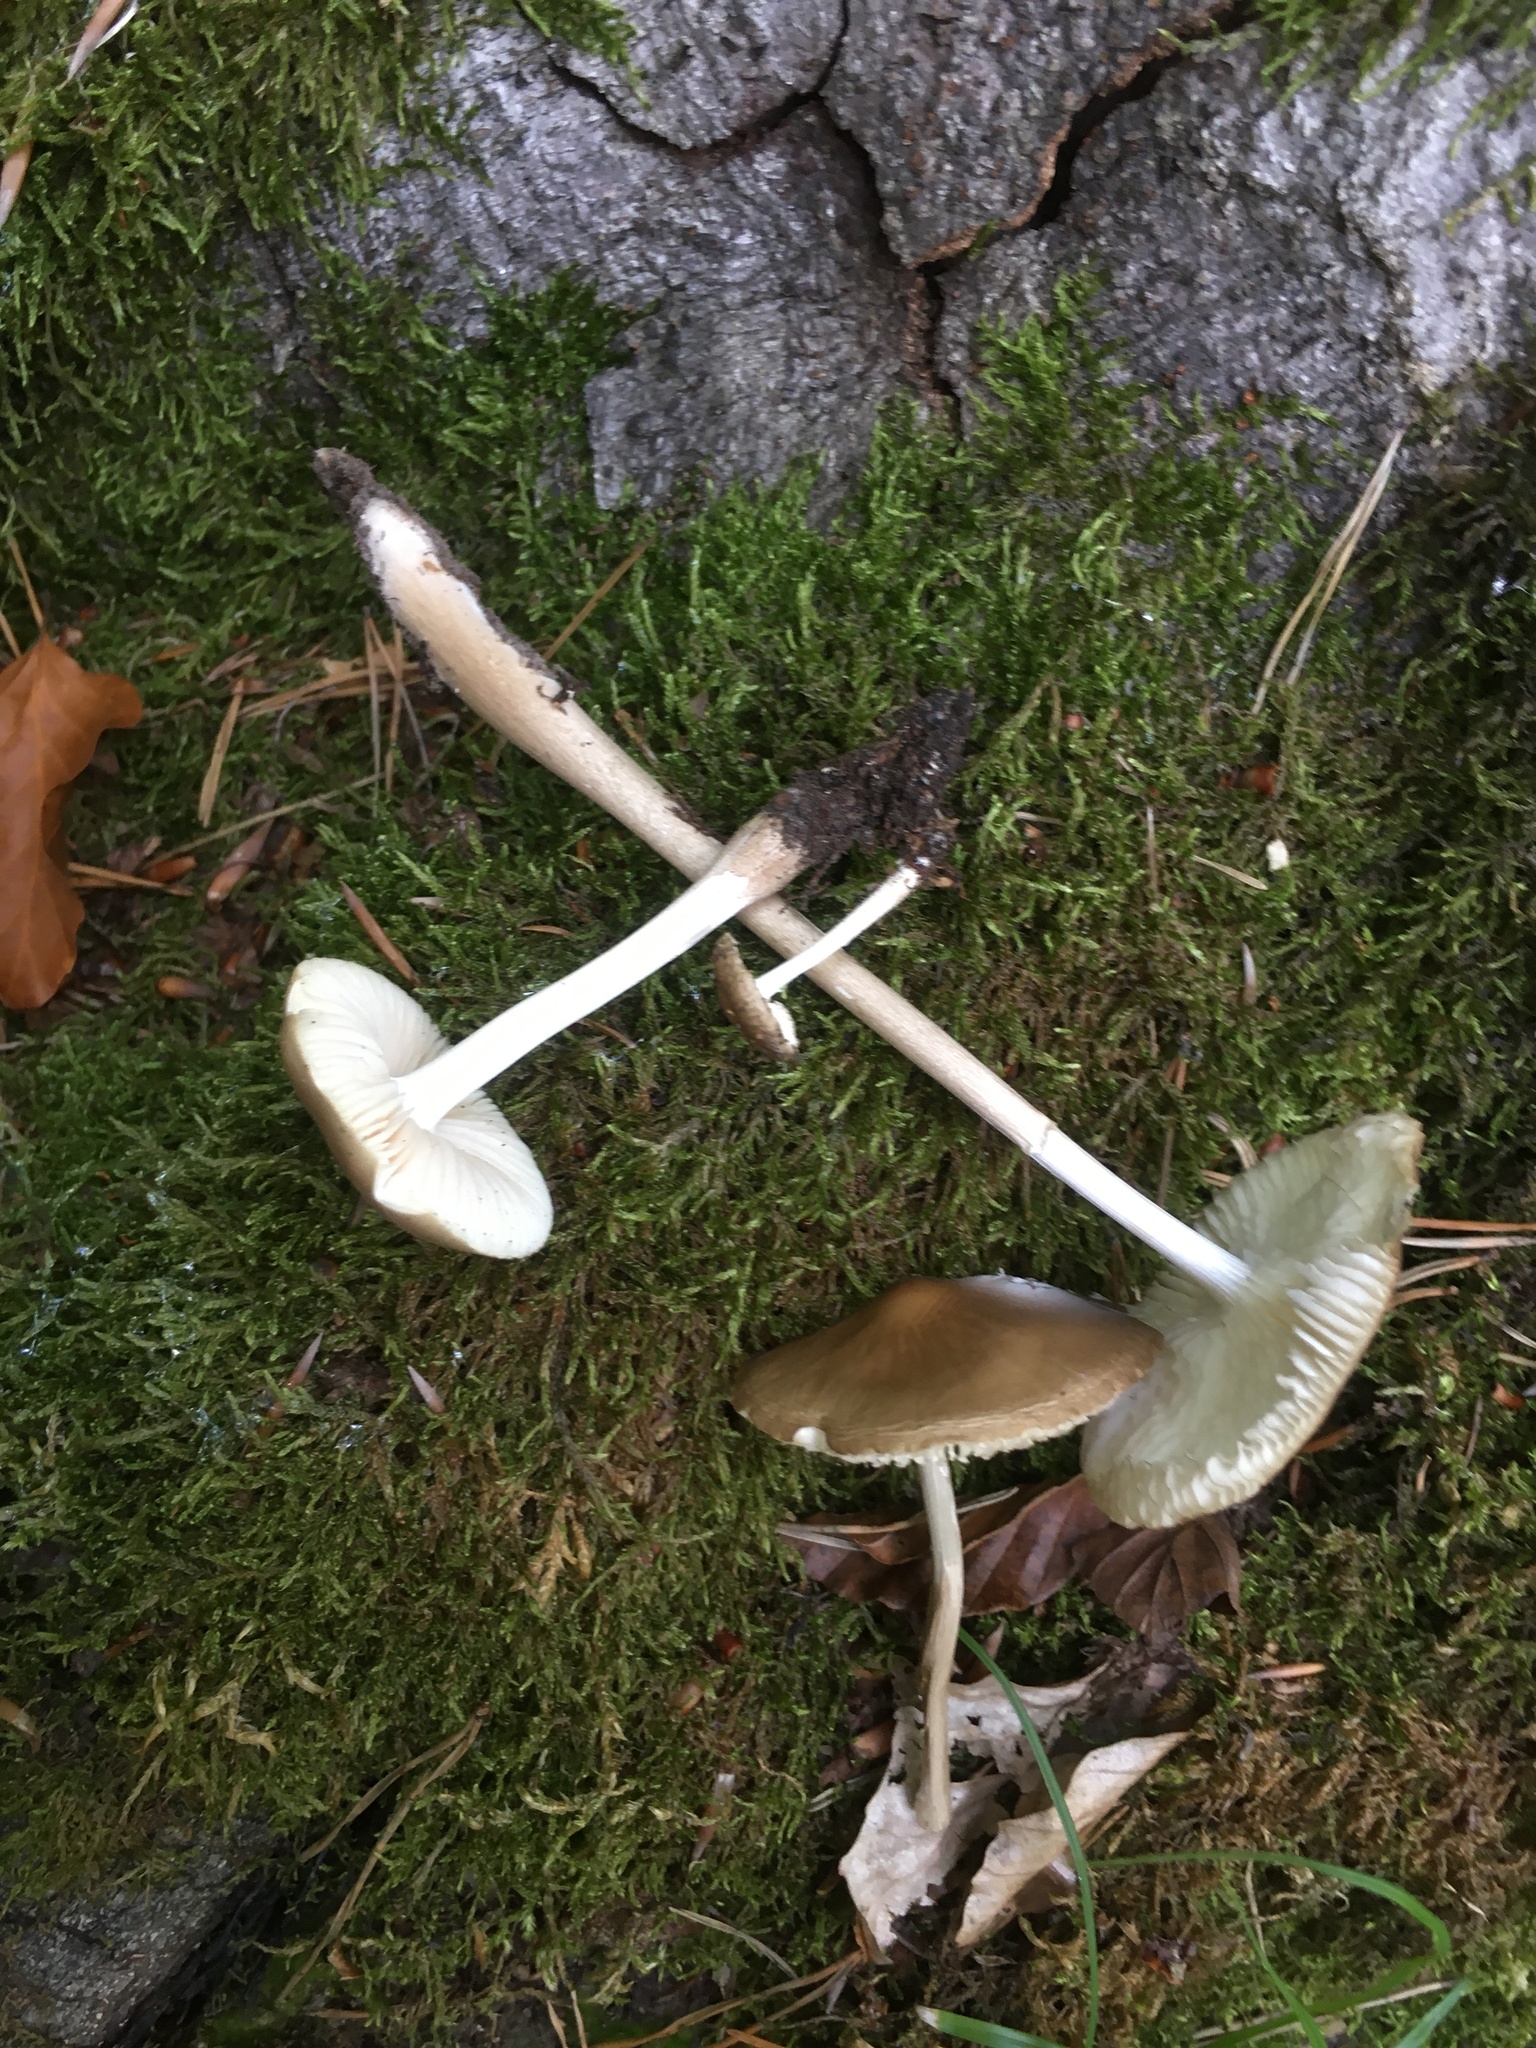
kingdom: Fungi
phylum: Basidiomycota
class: Agaricomycetes
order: Agaricales
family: Physalacriaceae
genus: Hymenopellis
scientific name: Hymenopellis radicata
